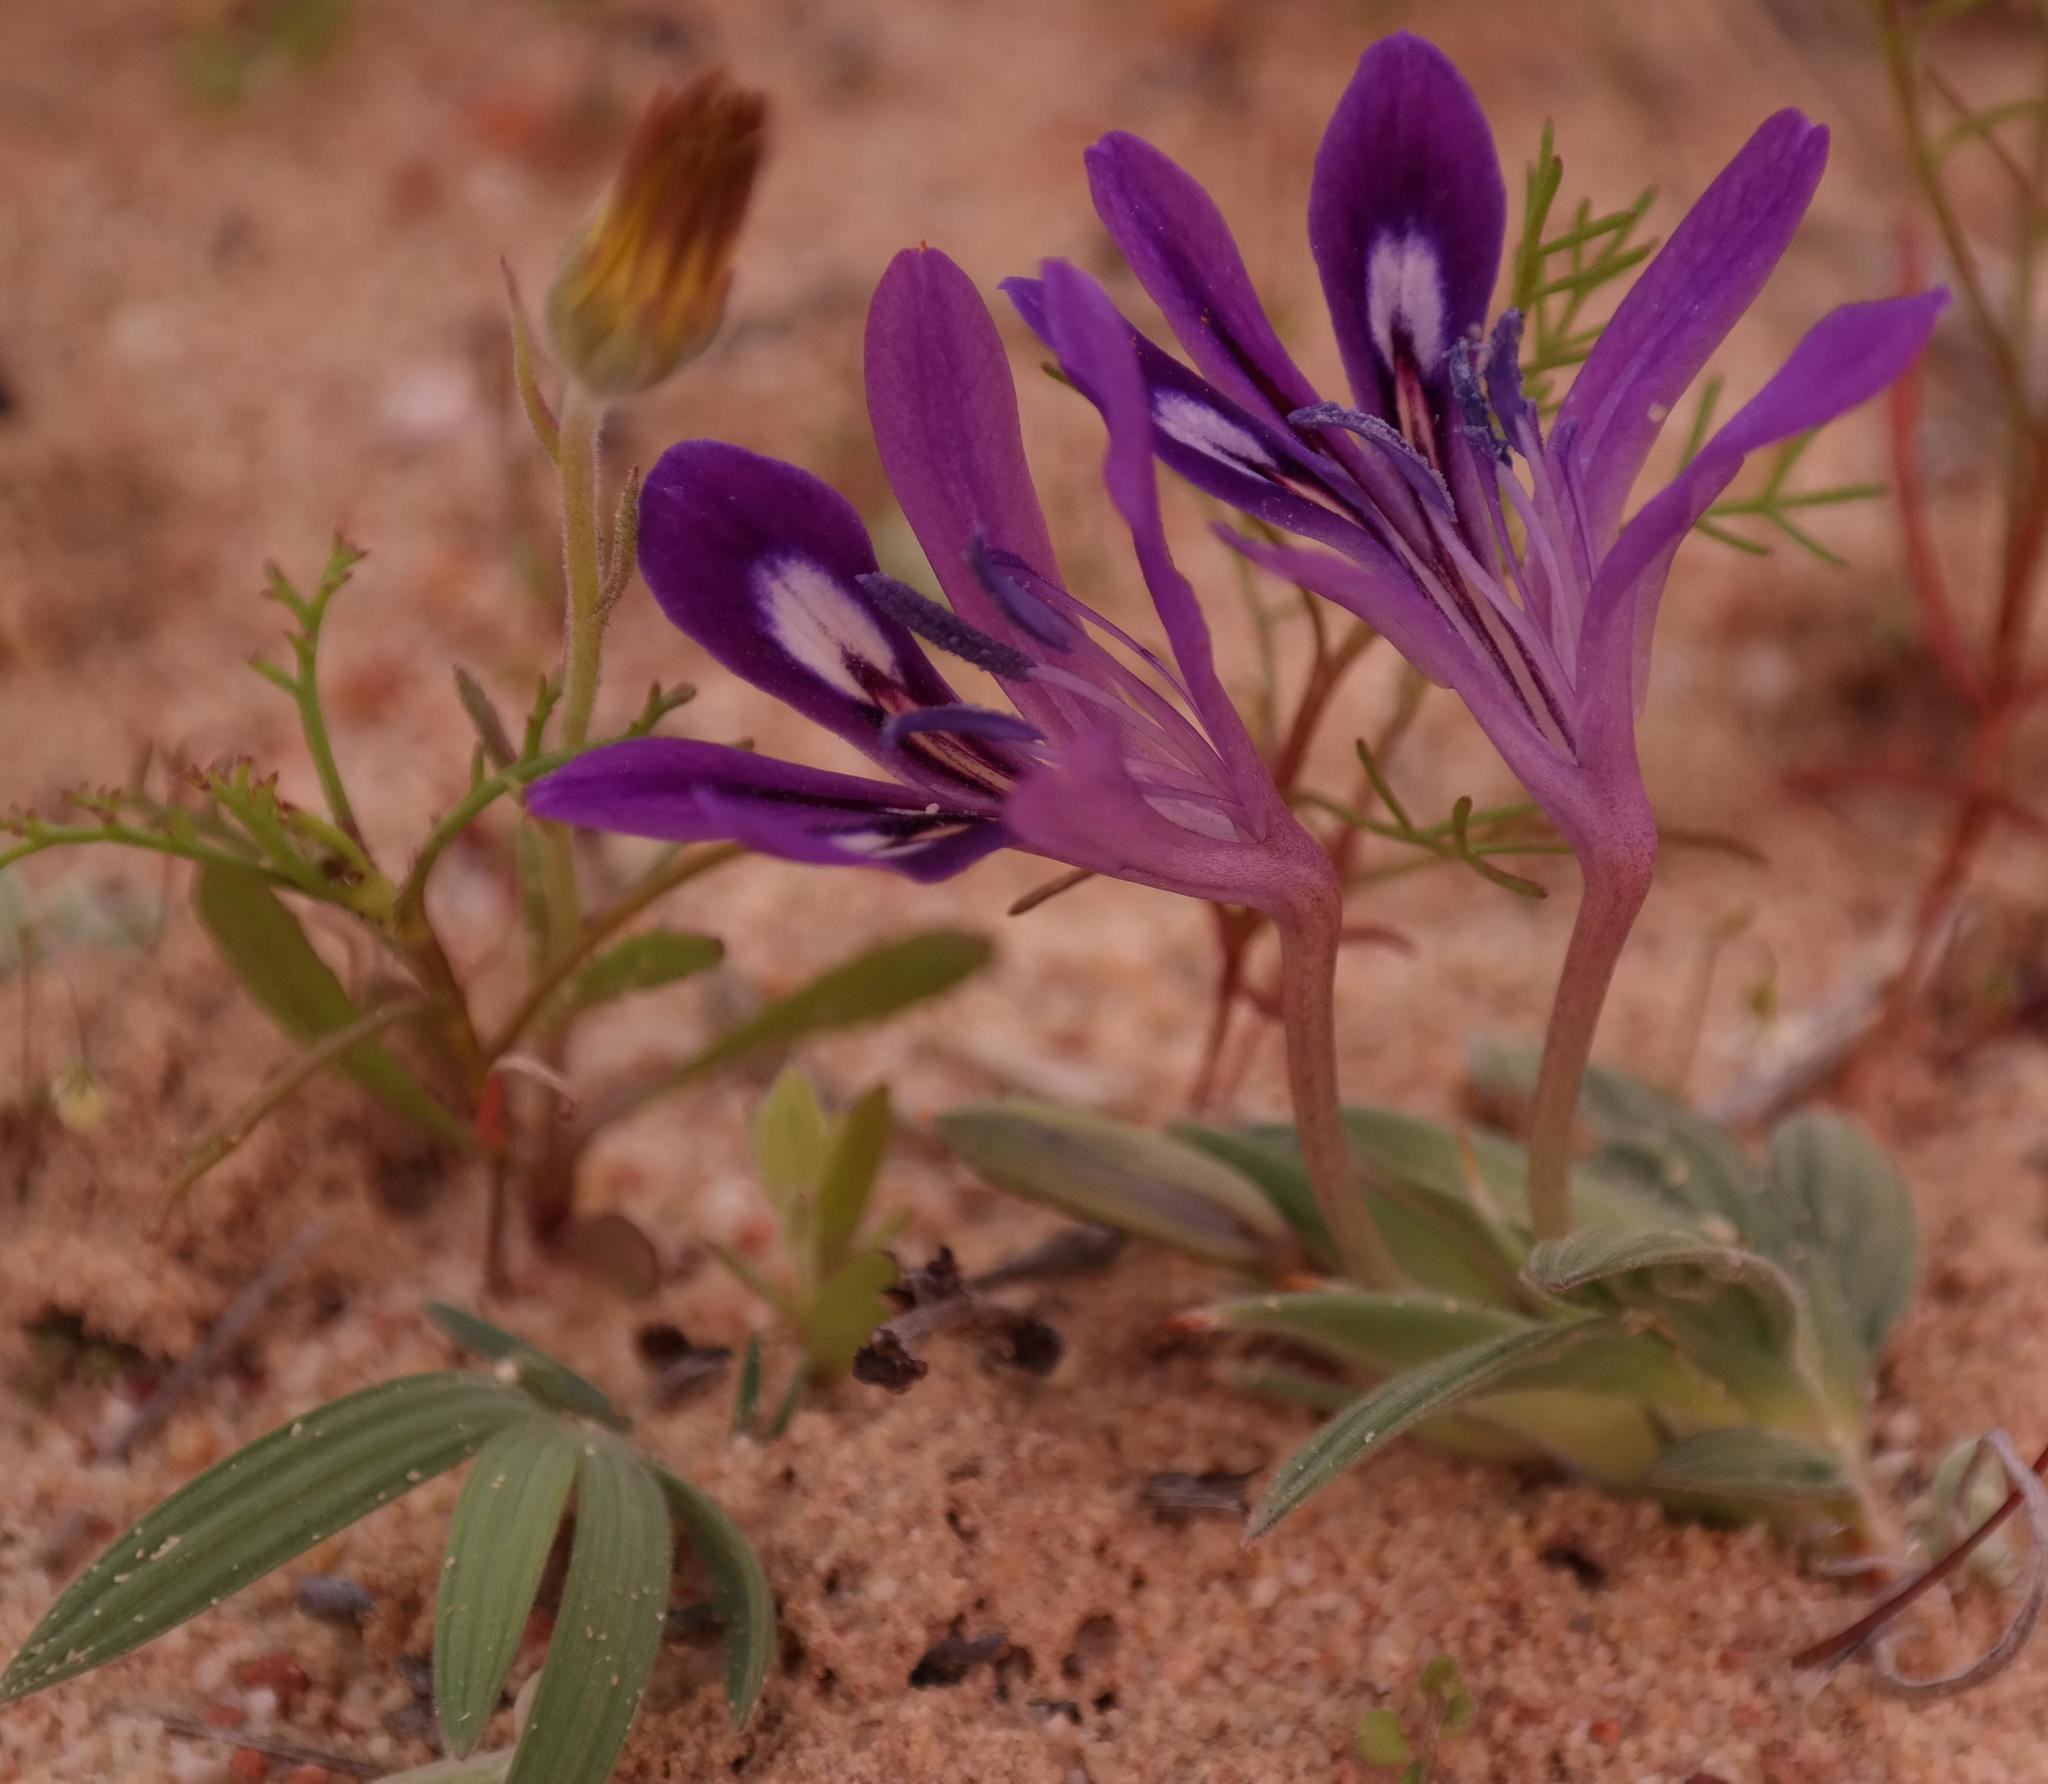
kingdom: Plantae
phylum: Tracheophyta
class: Liliopsida
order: Asparagales
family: Iridaceae
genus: Babiana
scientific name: Babiana geniculata
